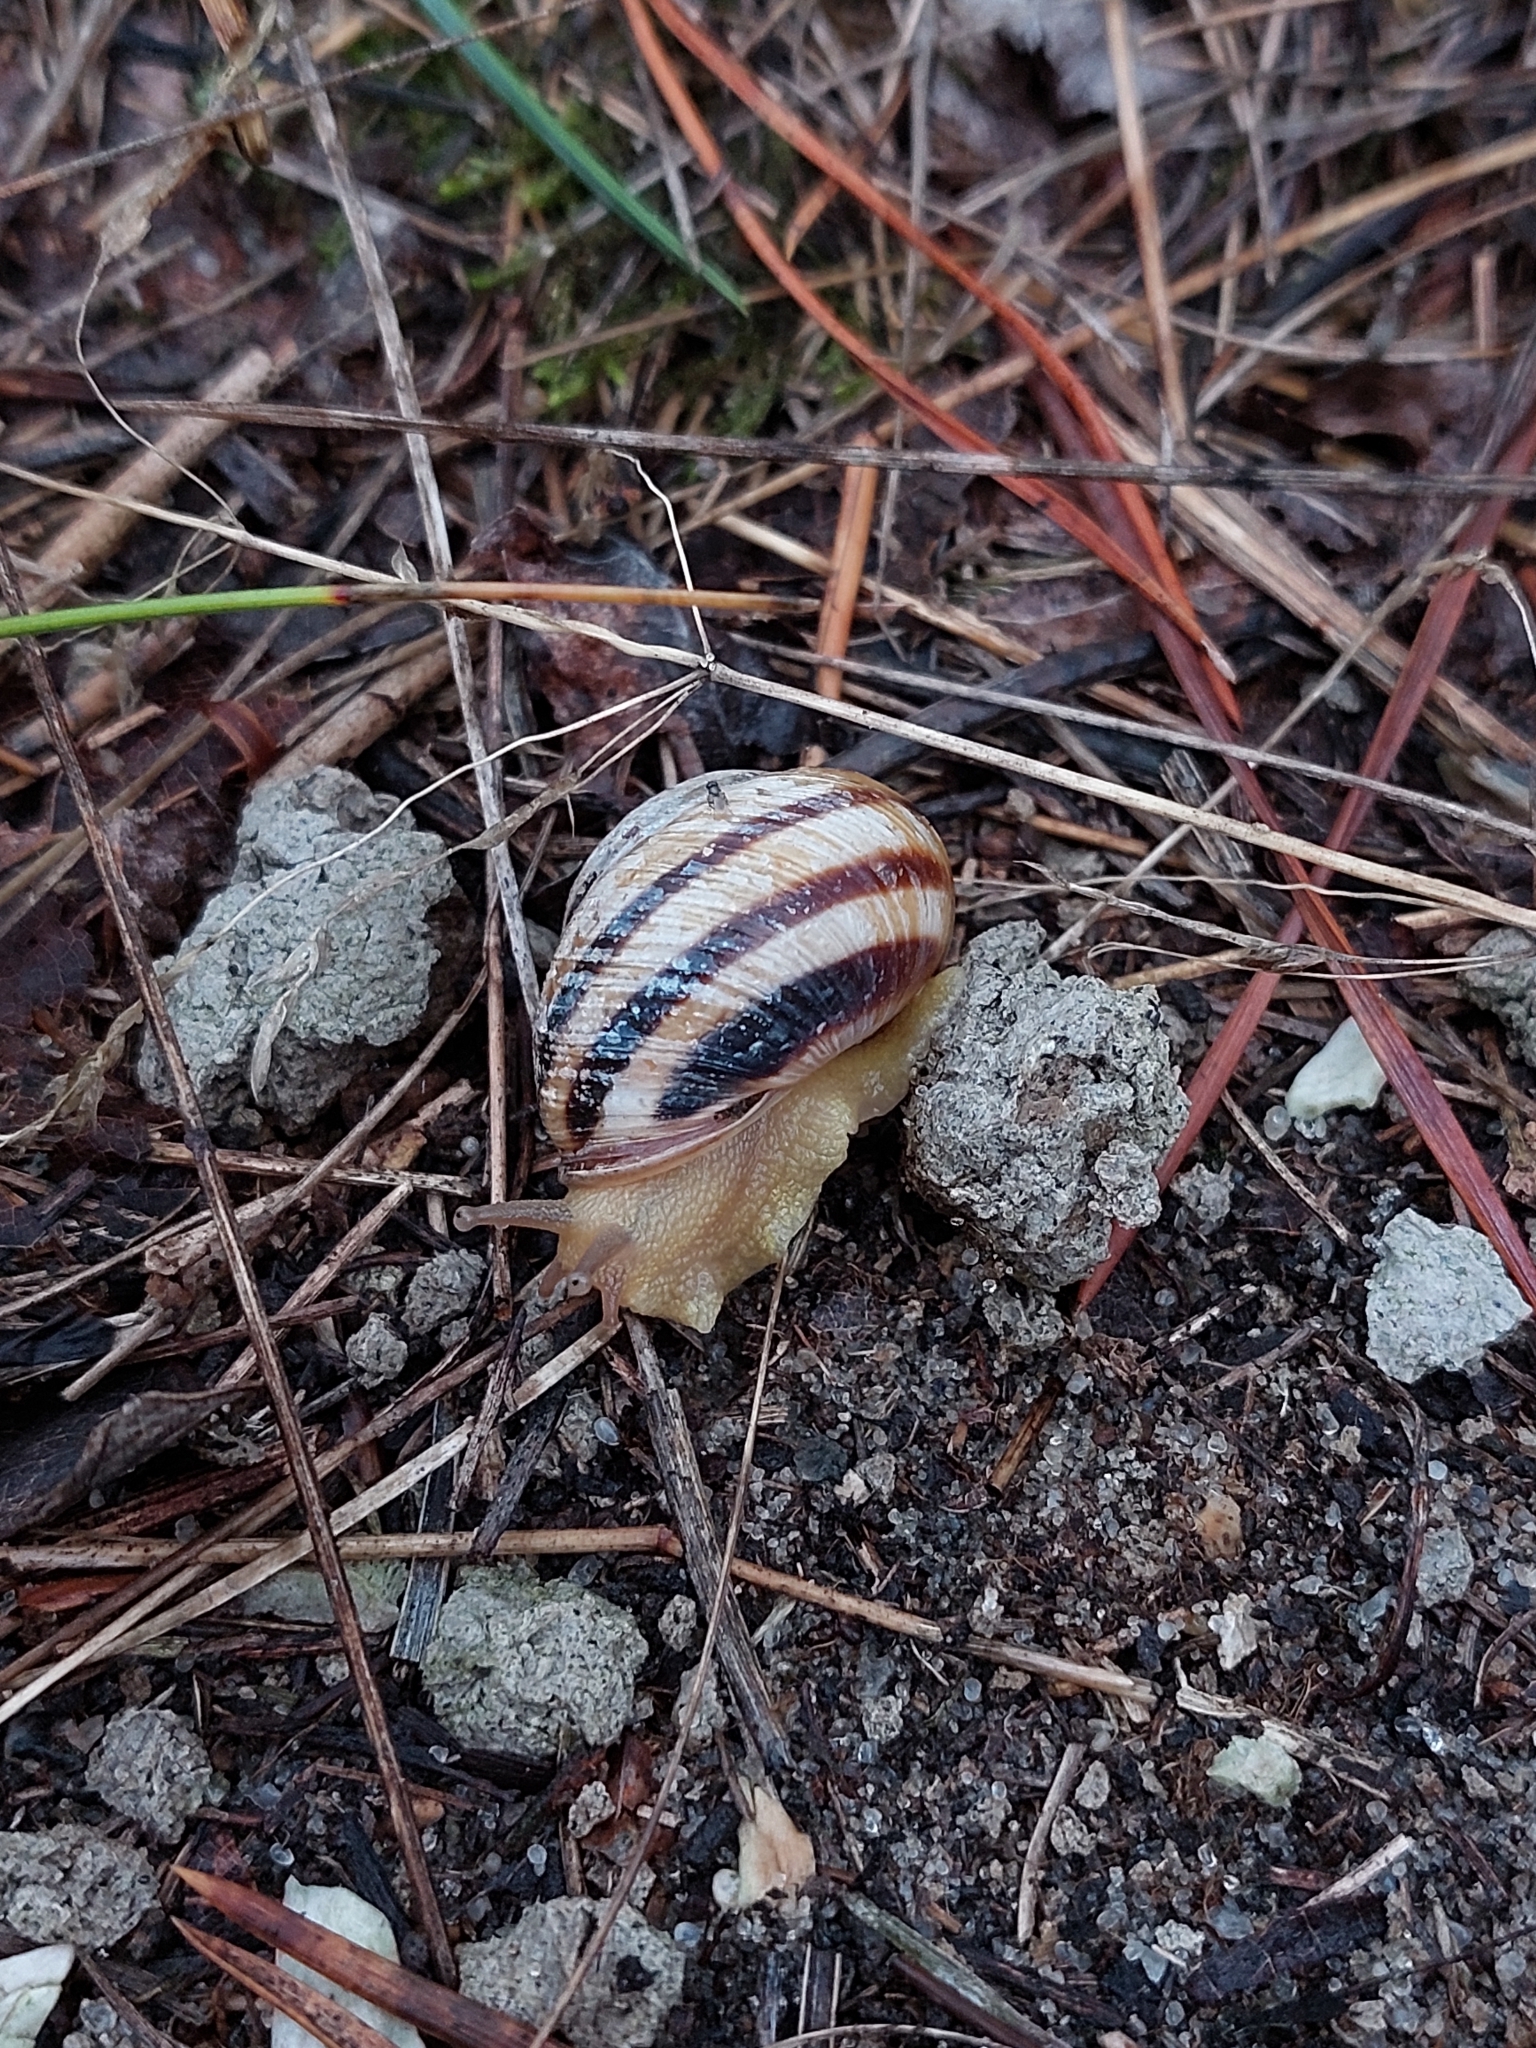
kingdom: Animalia
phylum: Mollusca
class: Gastropoda
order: Stylommatophora
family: Helicidae
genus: Caucasotachea
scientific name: Caucasotachea vindobonensis
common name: European helicid land snail
